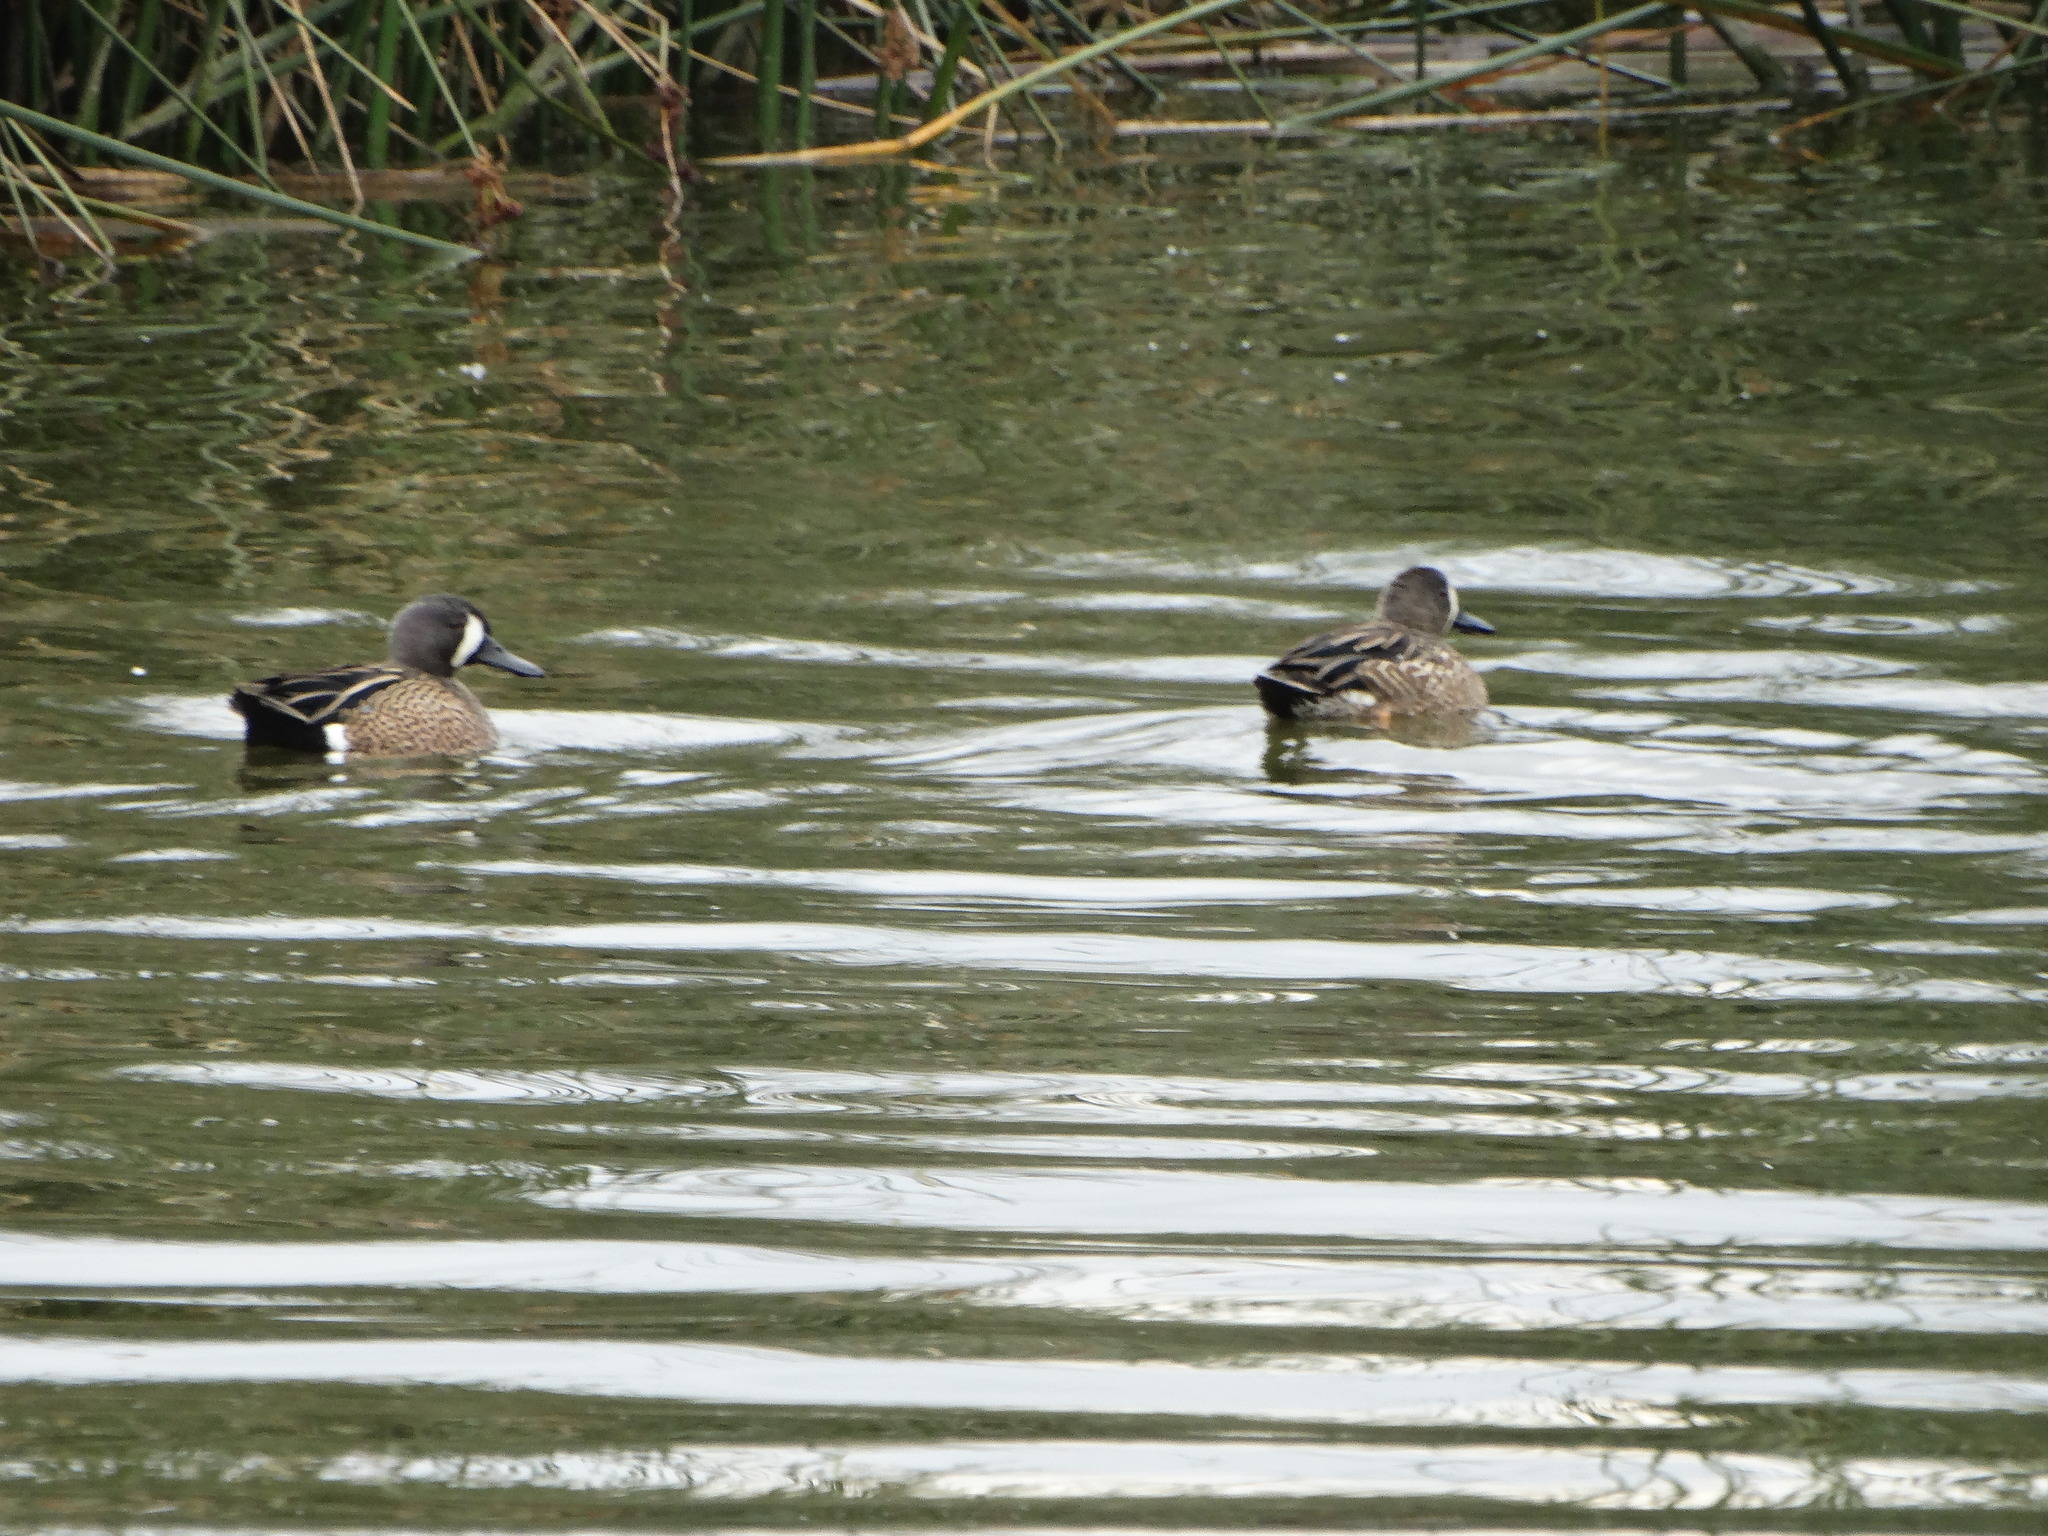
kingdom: Animalia
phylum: Chordata
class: Aves
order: Anseriformes
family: Anatidae
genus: Spatula
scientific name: Spatula discors
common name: Blue-winged teal
